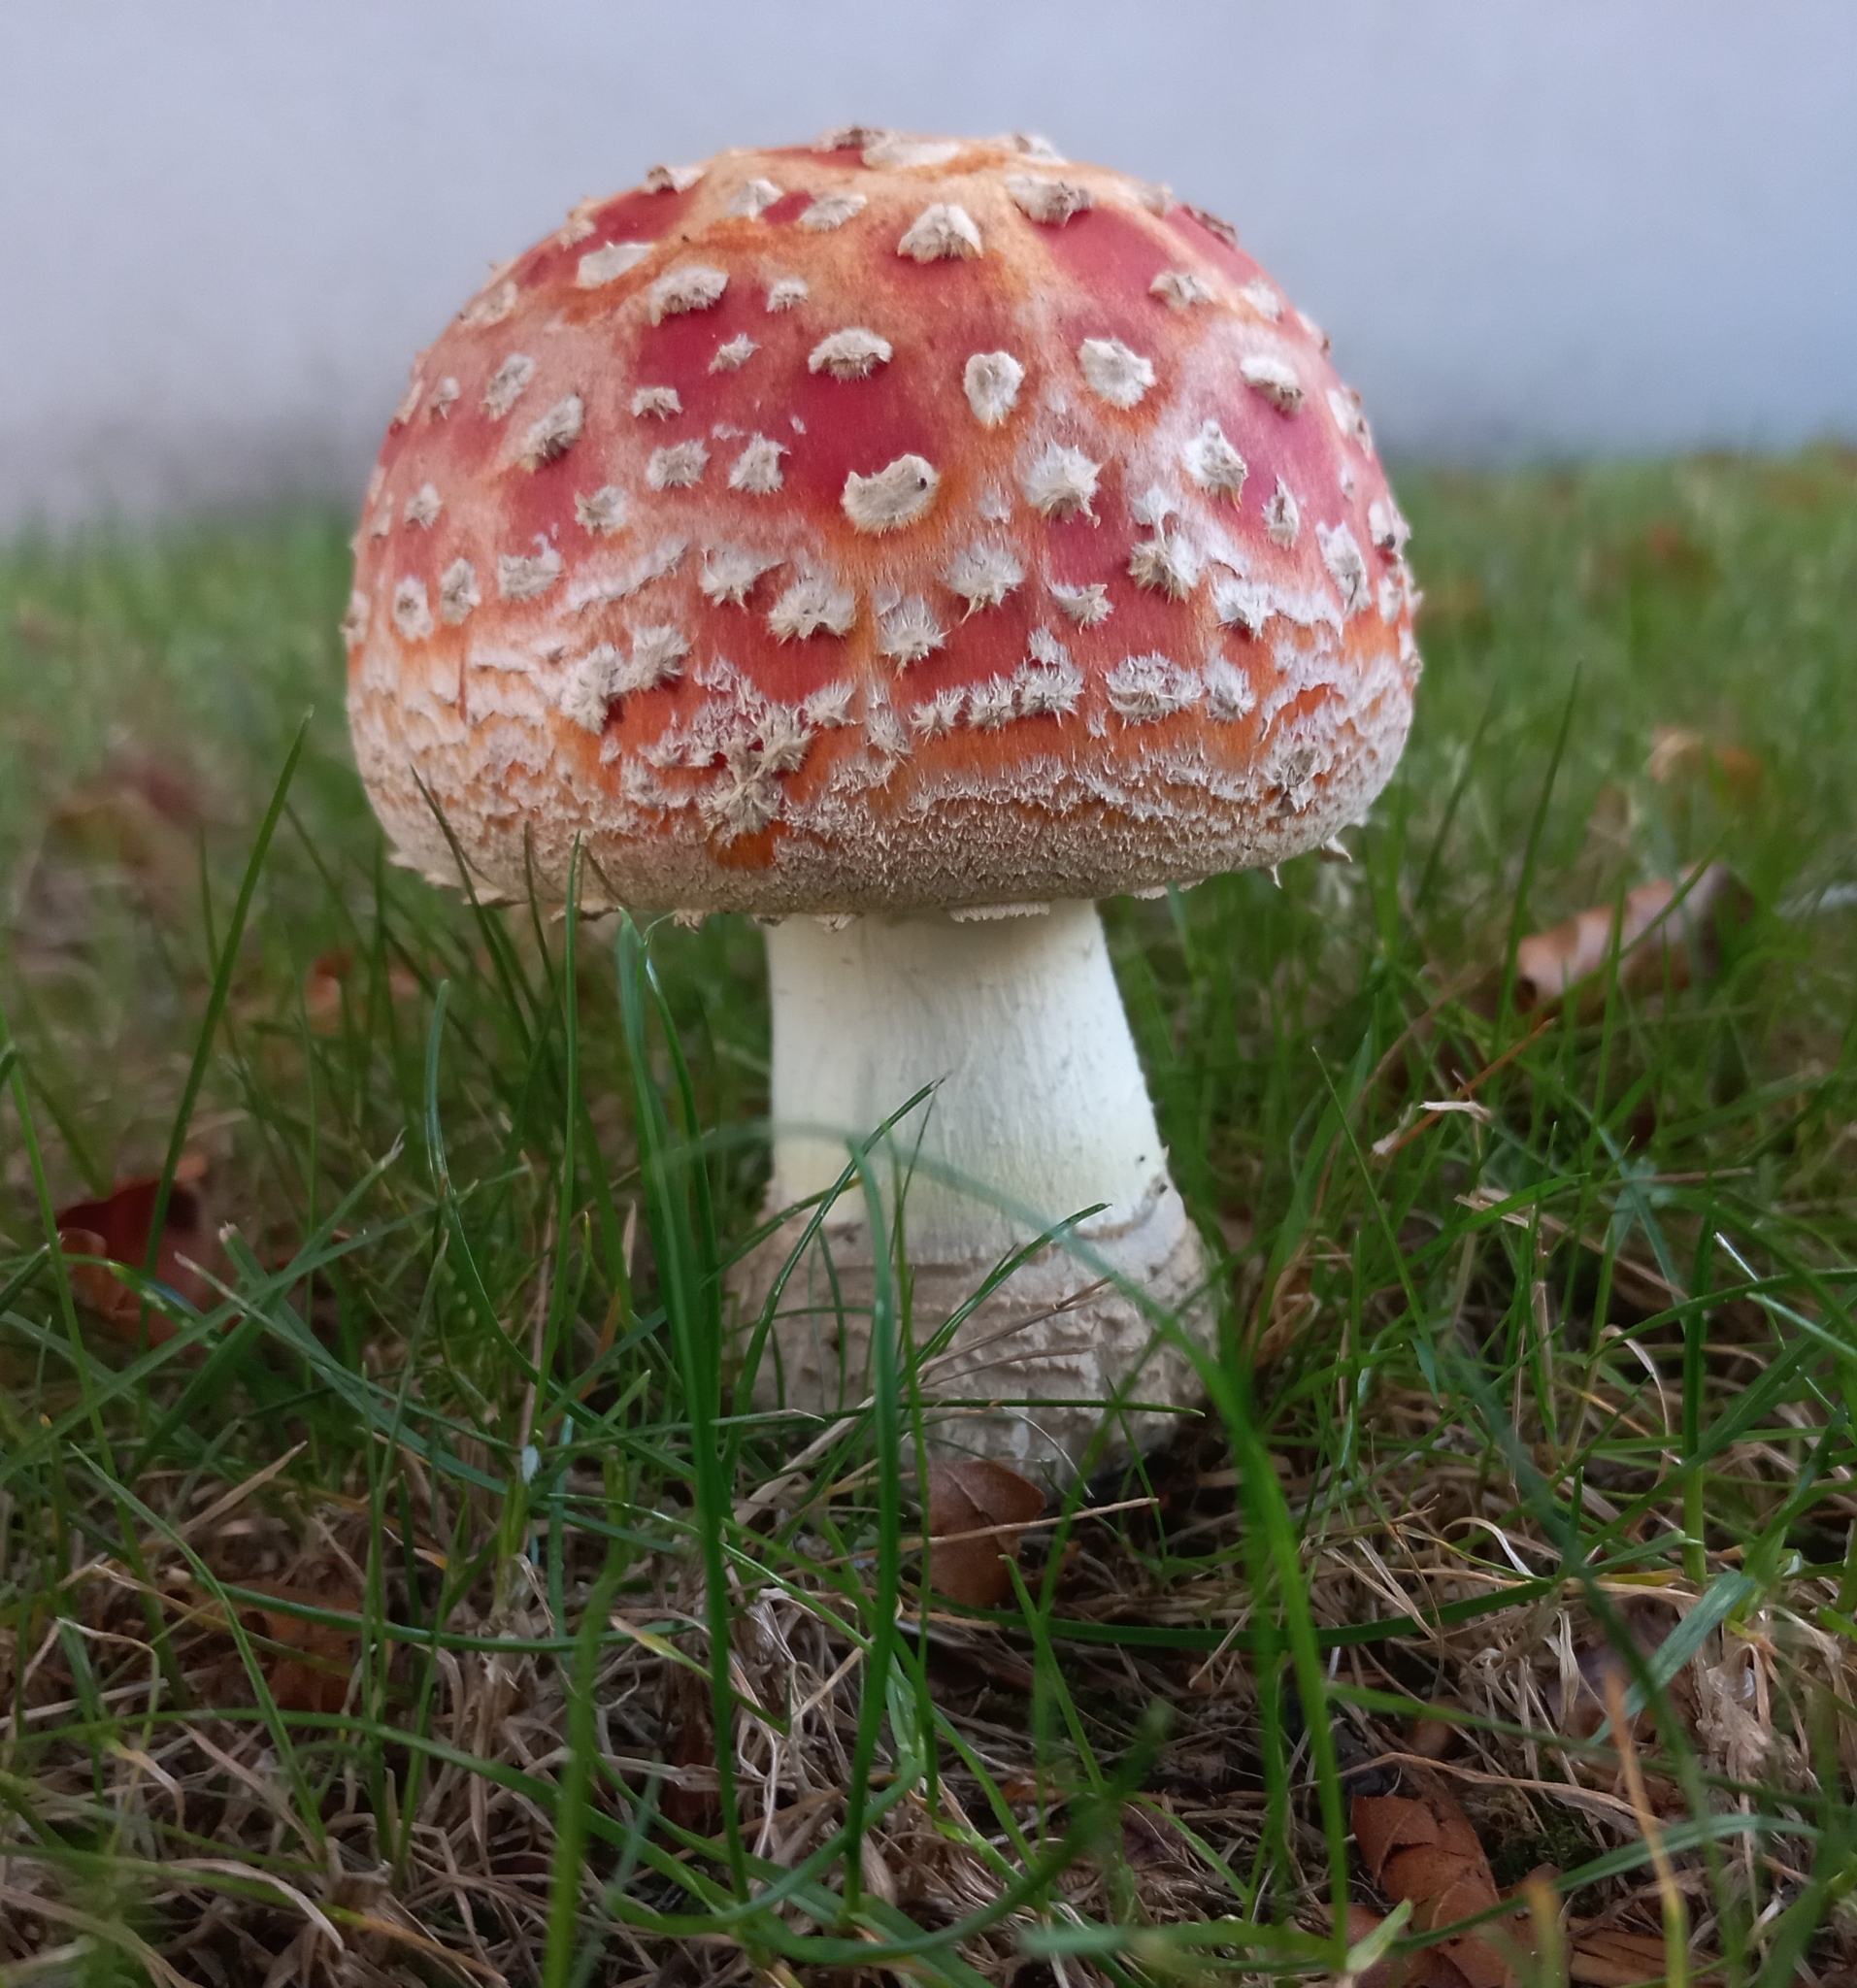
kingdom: Fungi
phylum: Basidiomycota
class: Agaricomycetes
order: Agaricales
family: Amanitaceae
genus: Amanita
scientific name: Amanita muscaria
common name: Fly agaric
